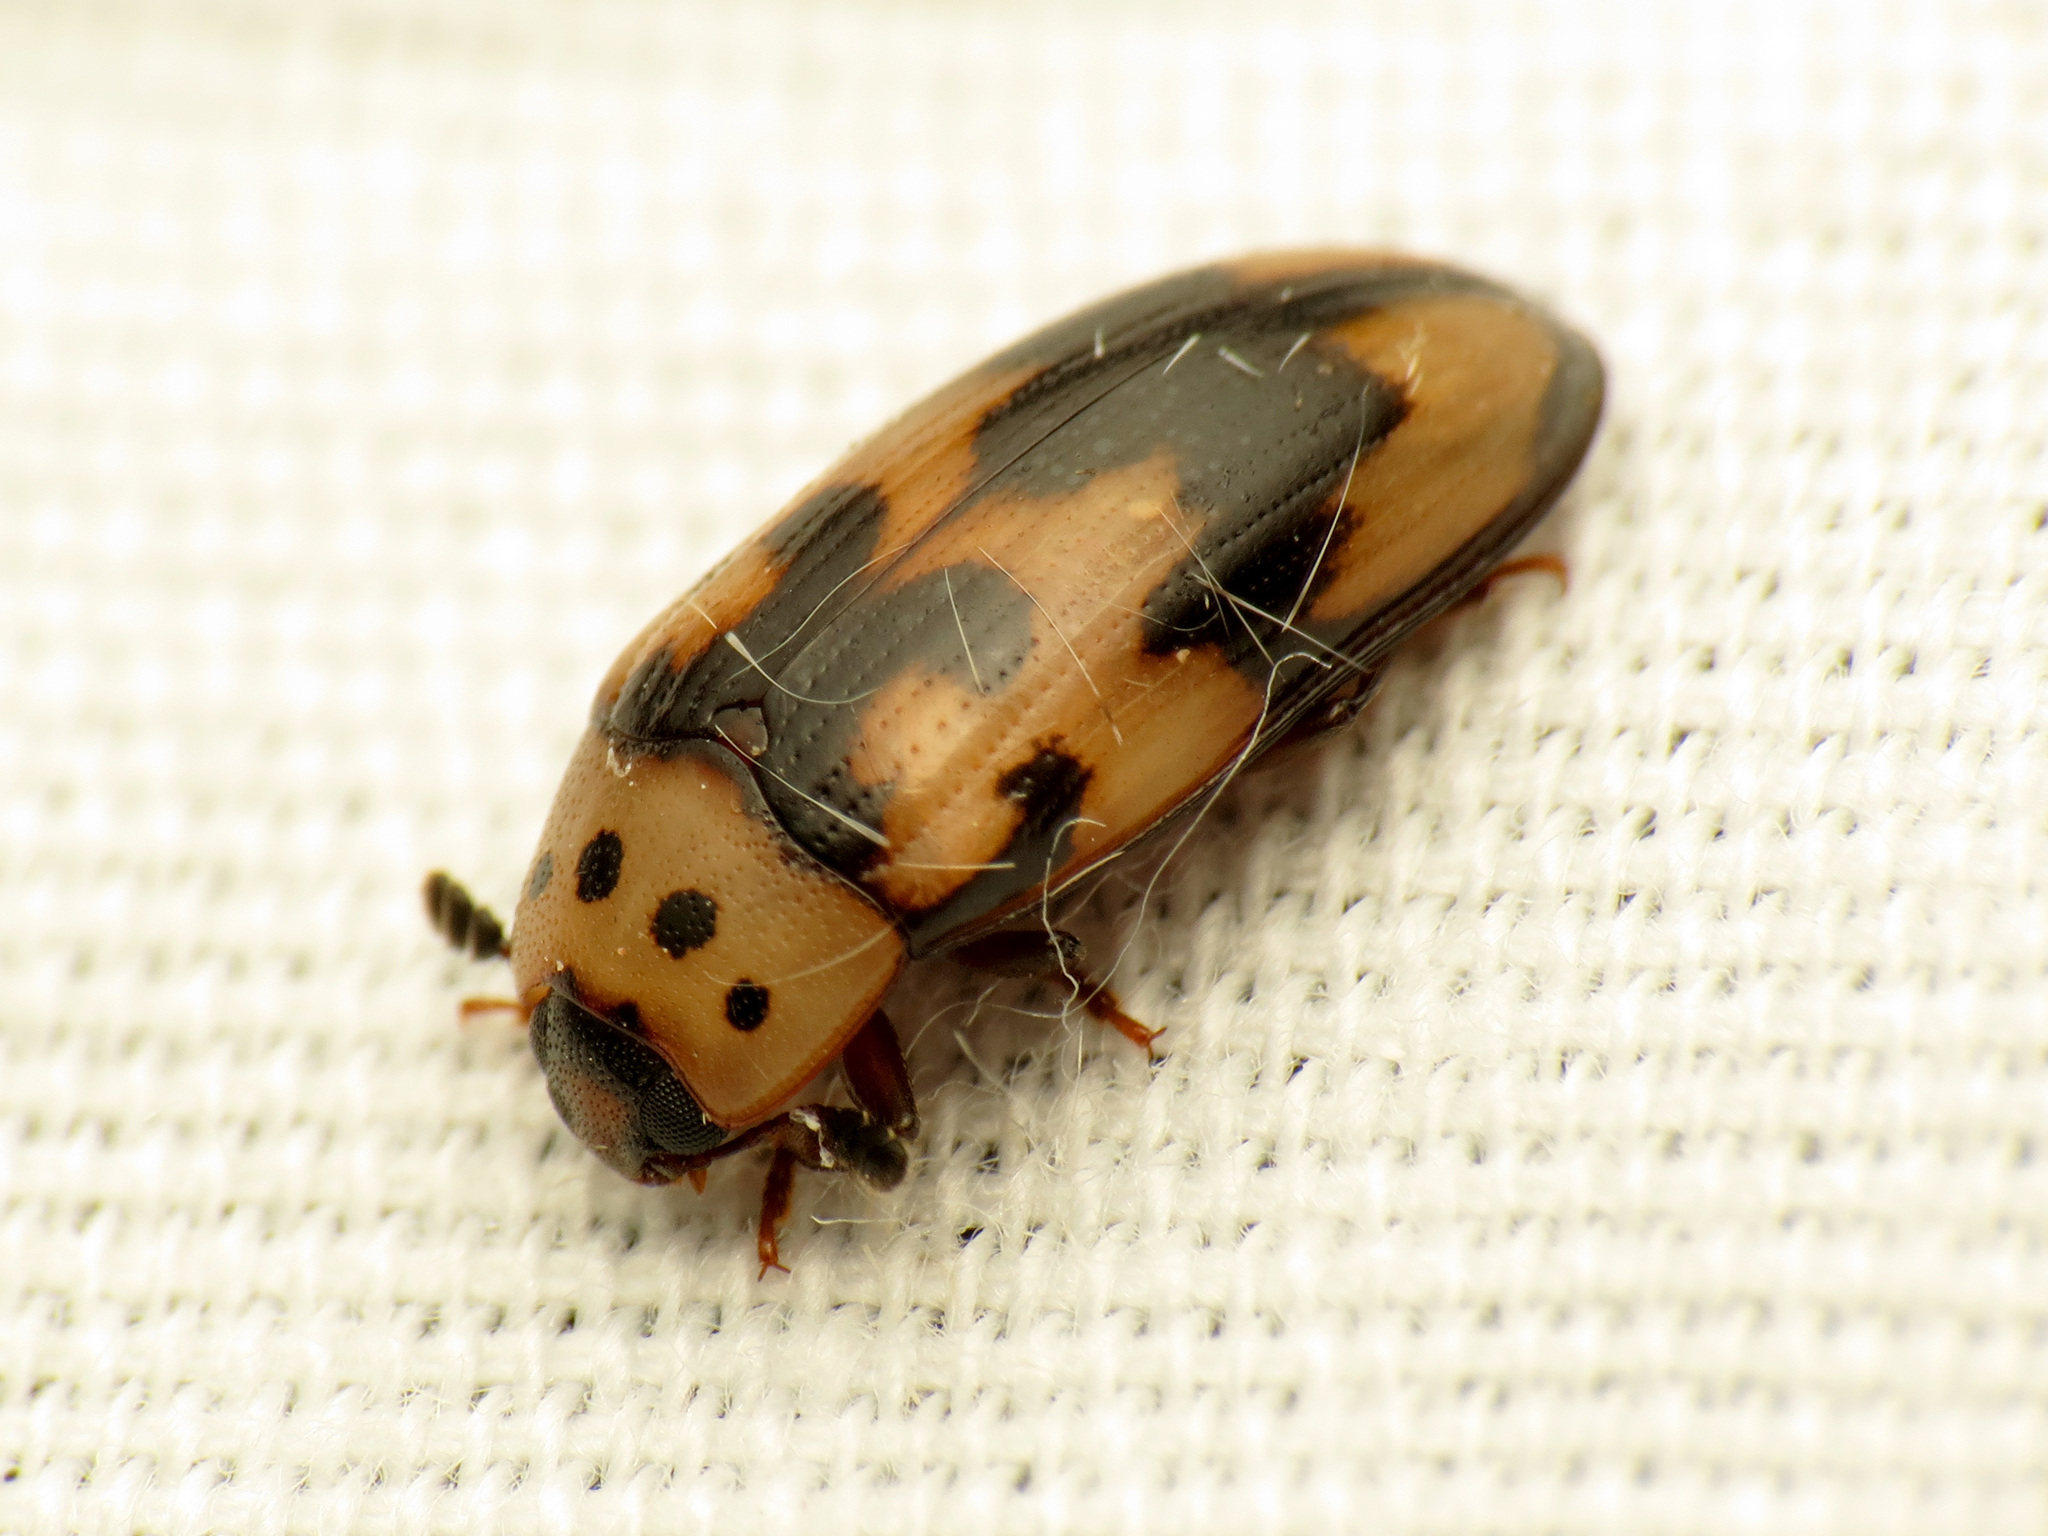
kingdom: Animalia
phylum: Arthropoda
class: Insecta
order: Coleoptera
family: Erotylidae
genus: Ischyrus
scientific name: Ischyrus quadripunctatus
